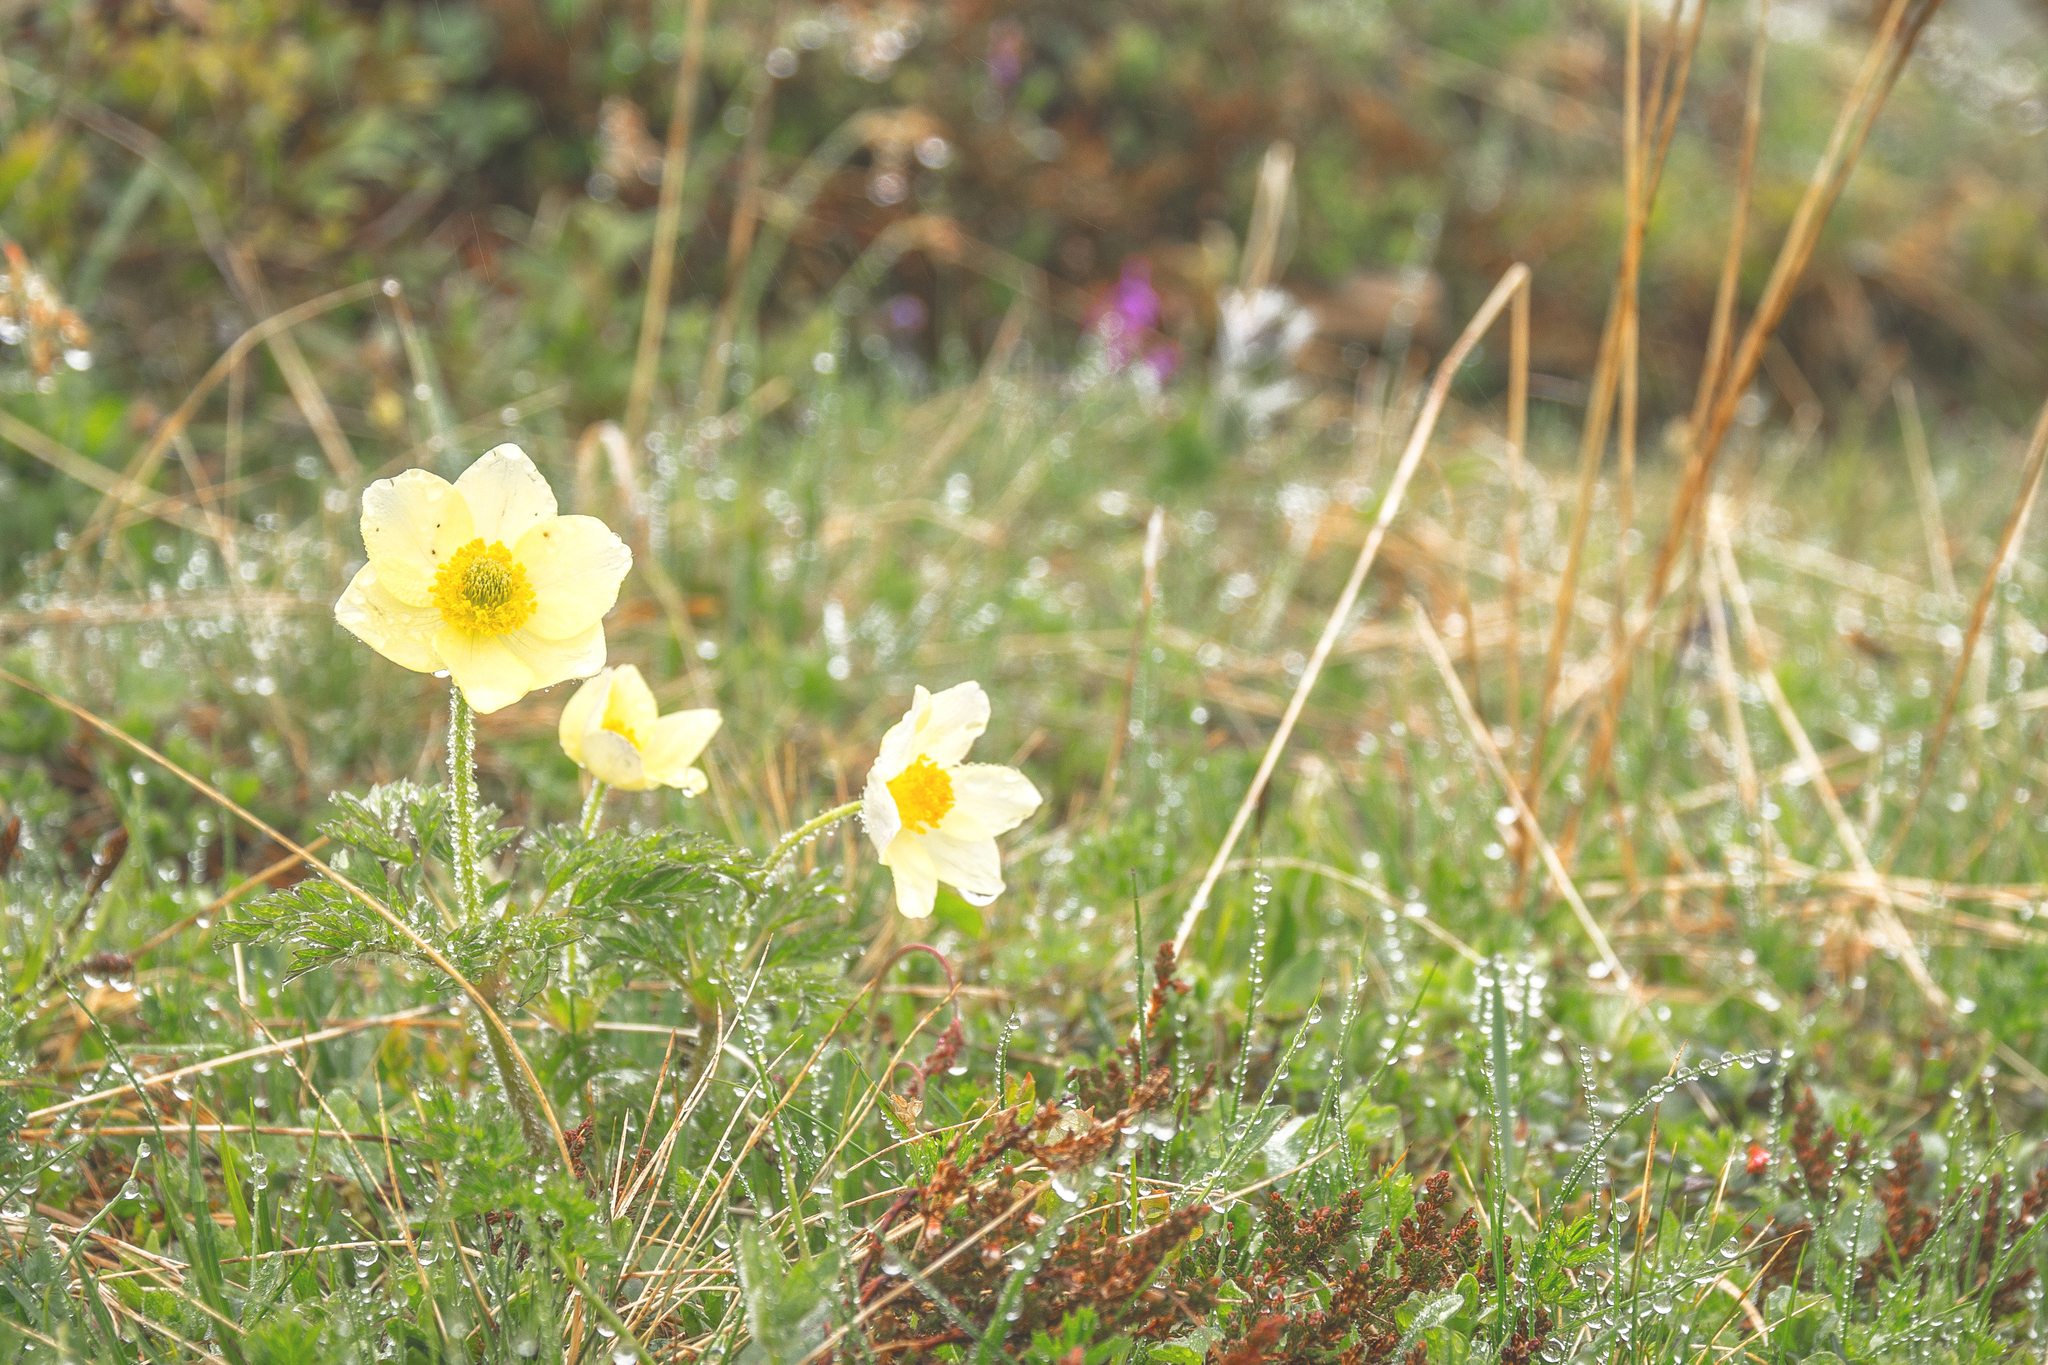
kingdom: Plantae
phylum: Tracheophyta
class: Magnoliopsida
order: Ranunculales
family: Ranunculaceae
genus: Pulsatilla
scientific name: Pulsatilla alpina
